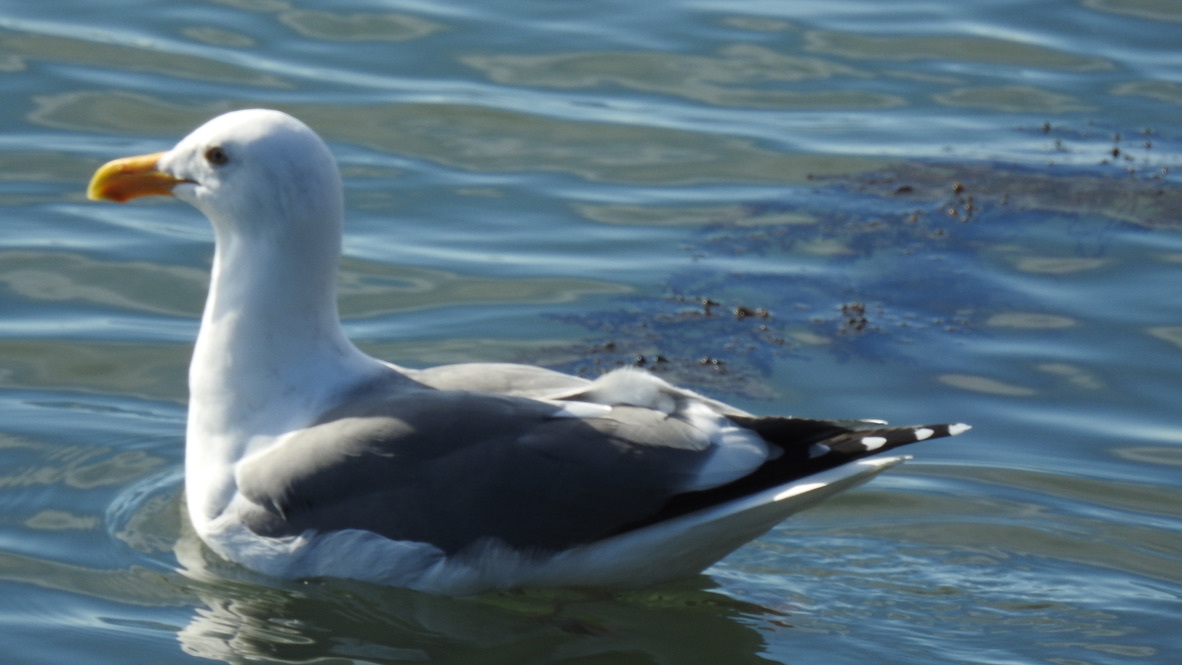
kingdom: Animalia
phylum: Chordata
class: Aves
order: Charadriiformes
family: Laridae
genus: Larus
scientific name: Larus occidentalis
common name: Western gull
